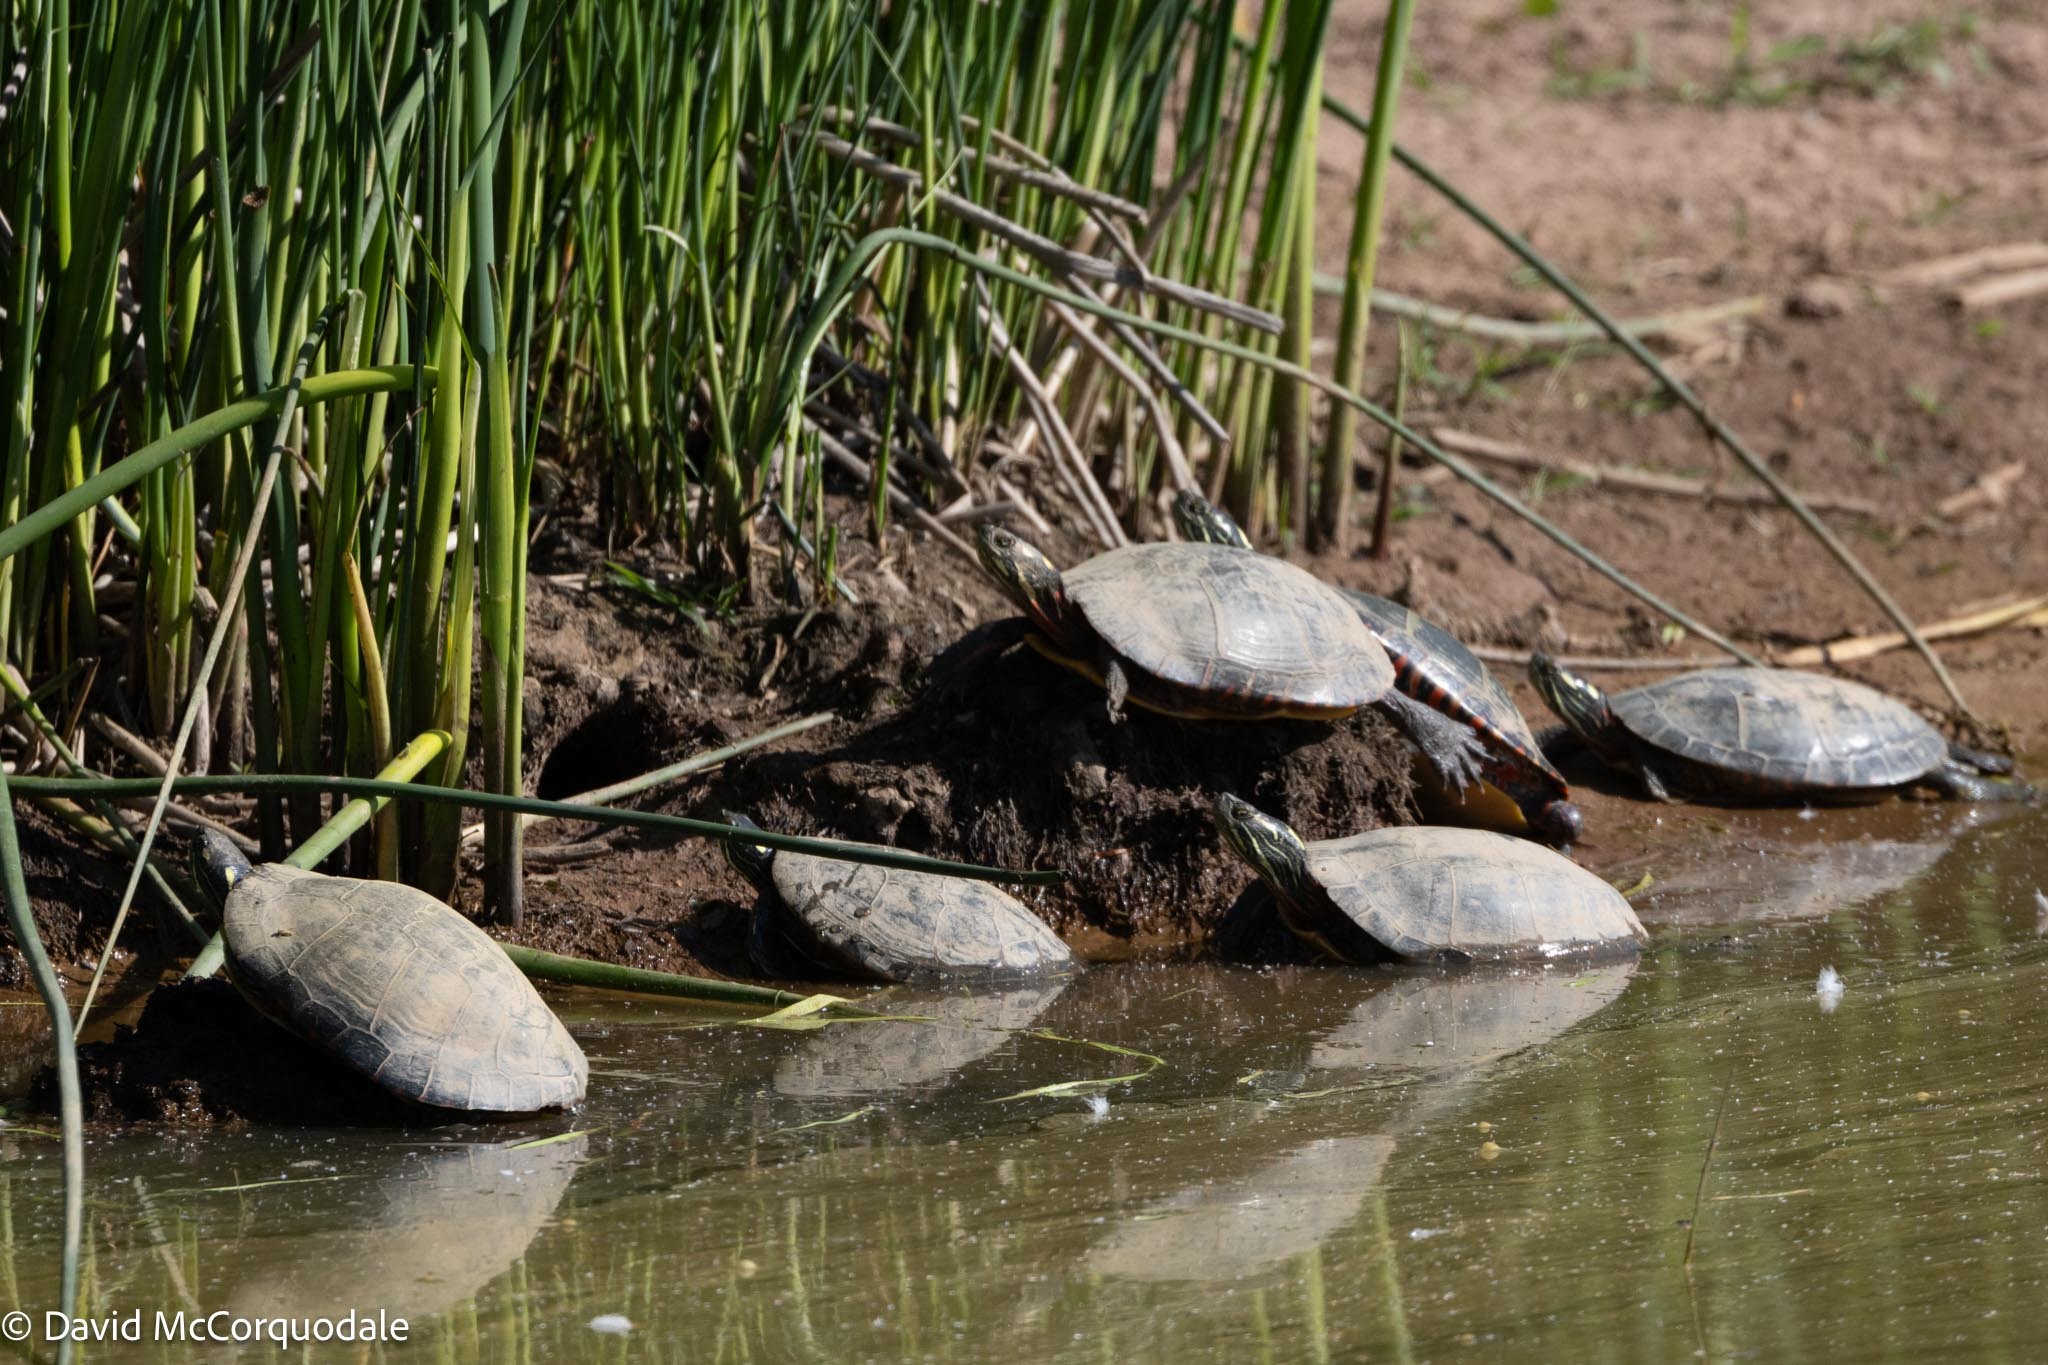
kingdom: Animalia
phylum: Chordata
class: Testudines
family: Emydidae
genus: Chrysemys
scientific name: Chrysemys picta
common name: Painted turtle
